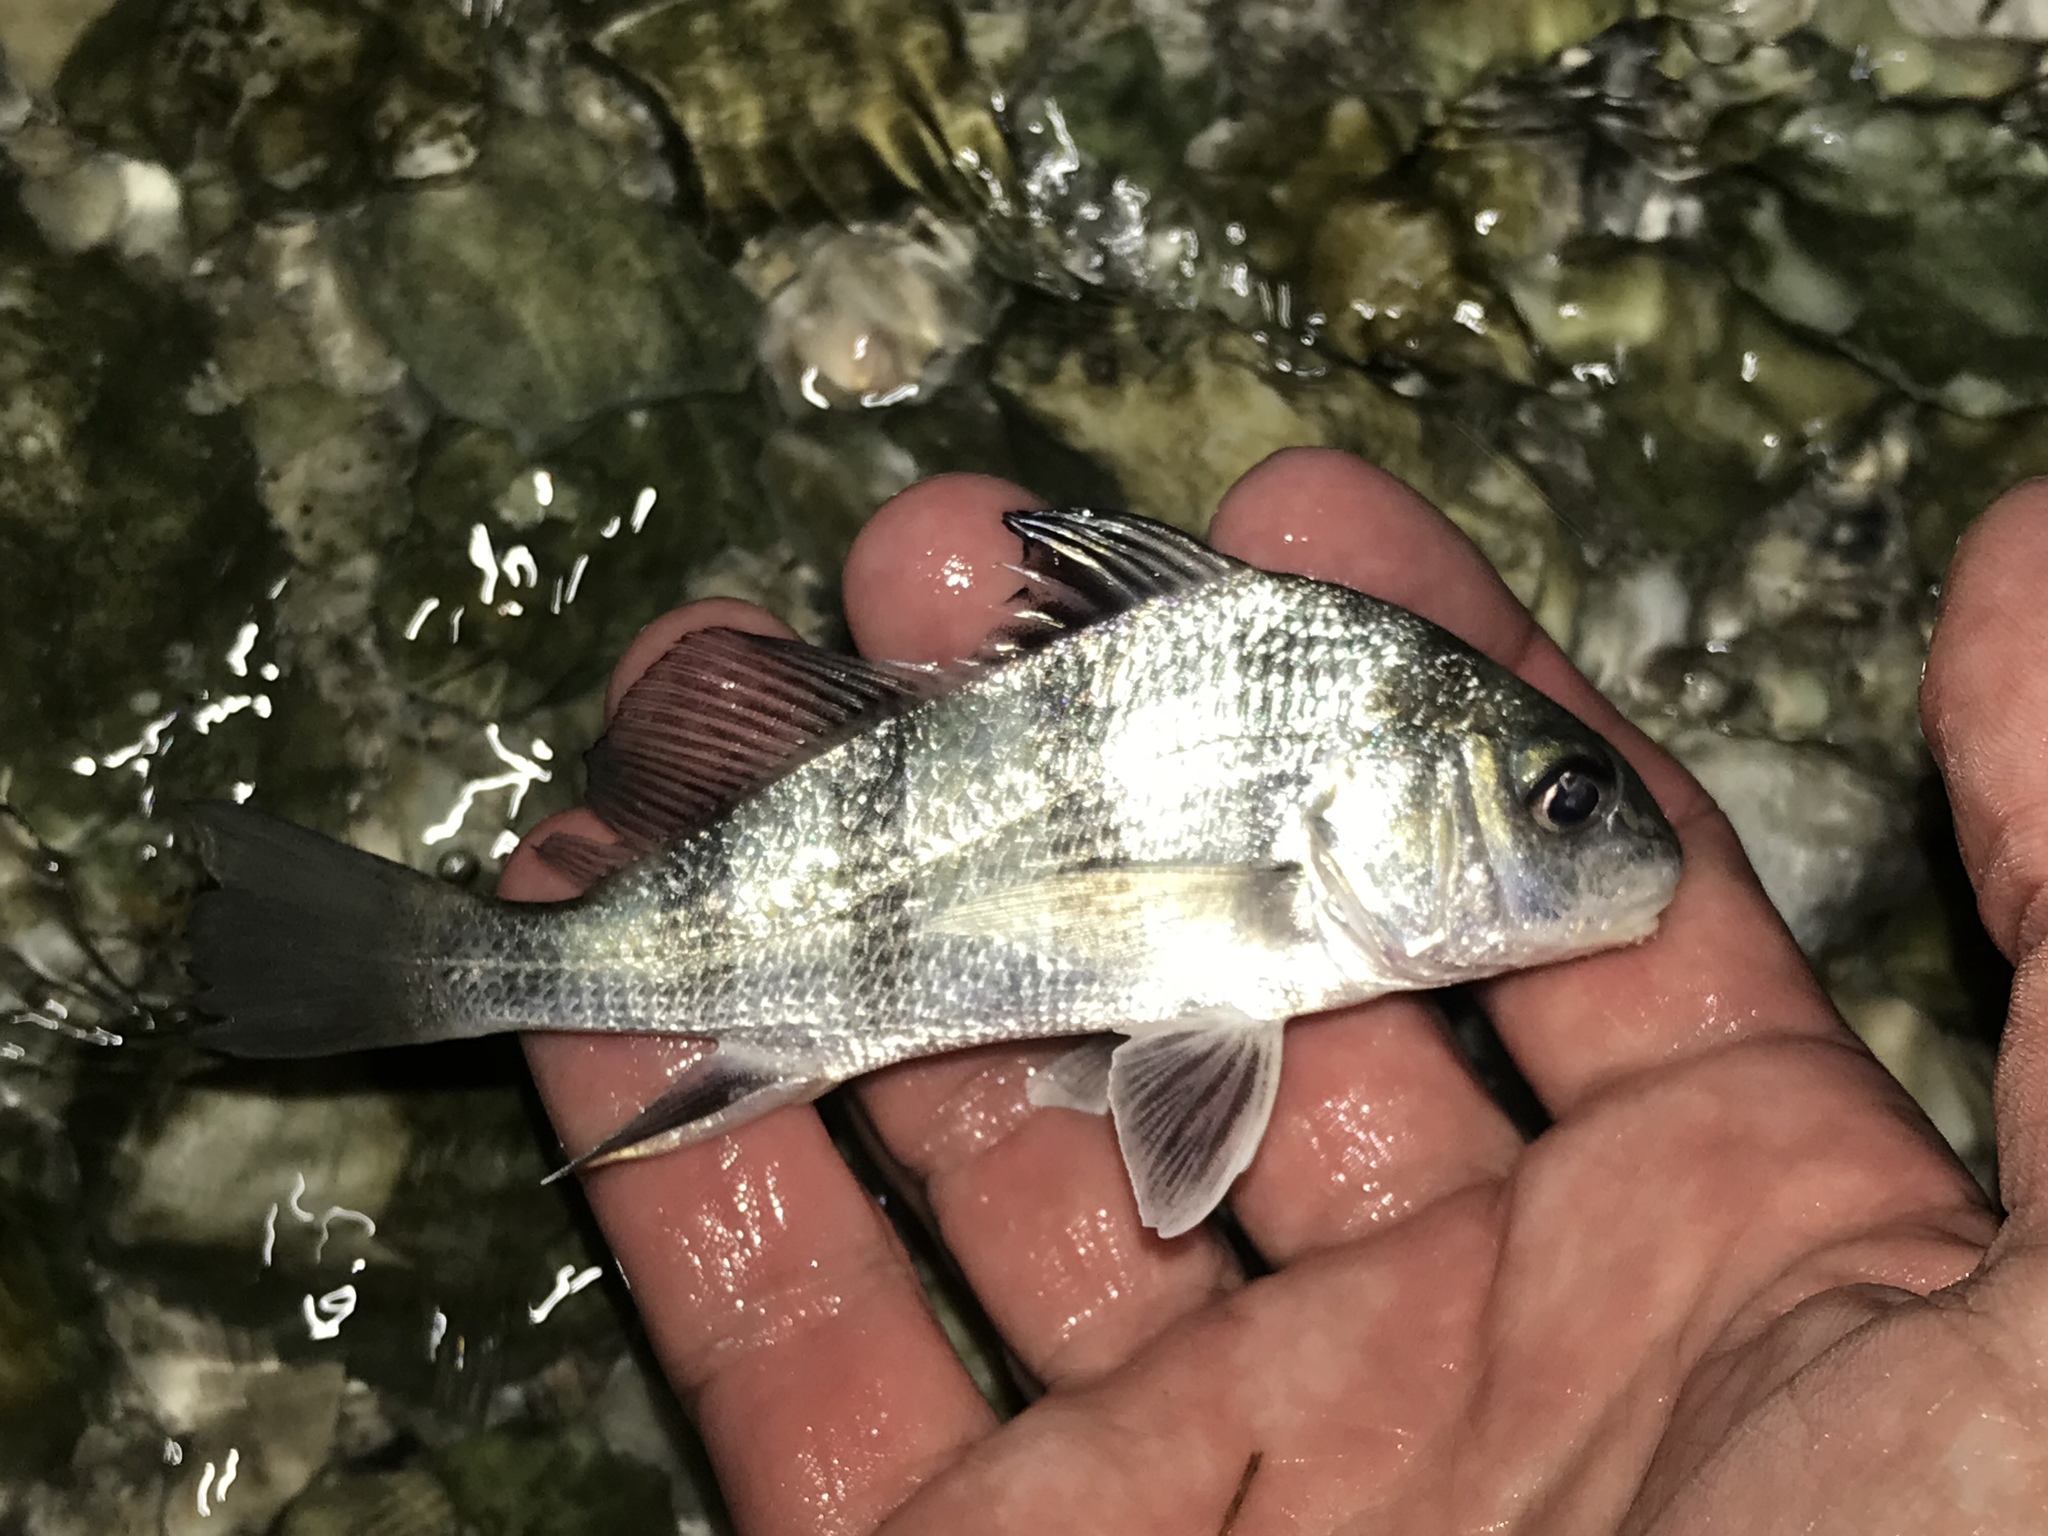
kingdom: Animalia
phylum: Chordata
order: Perciformes
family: Sciaenidae
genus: Pogonias
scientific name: Pogonias cromis
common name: Black drum
